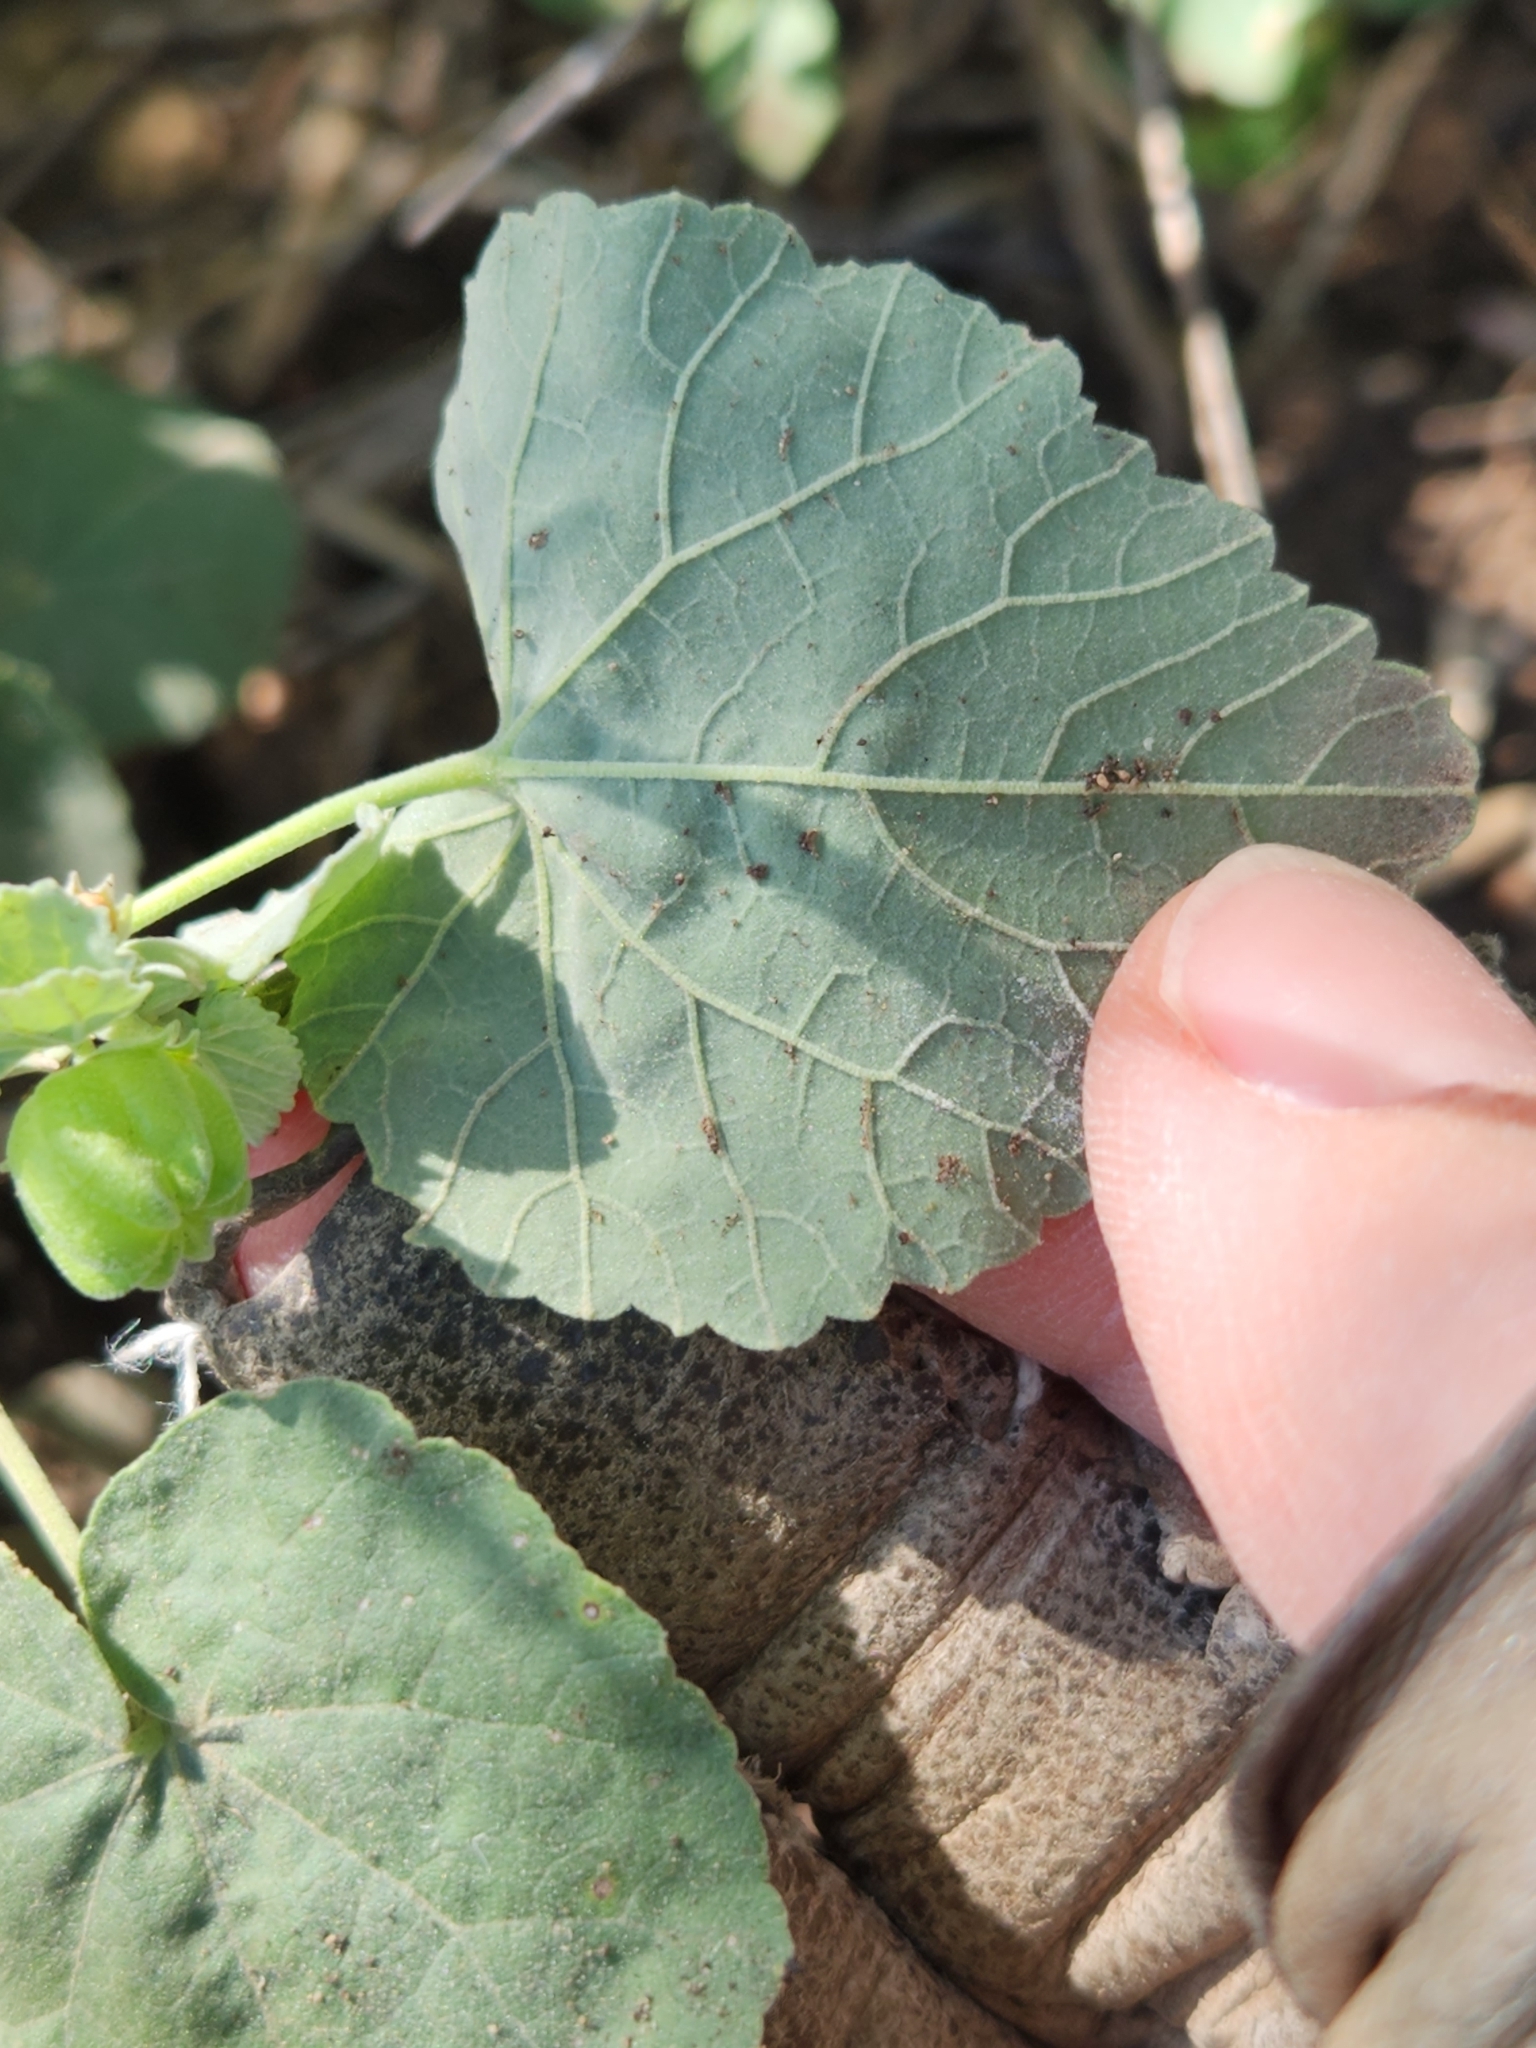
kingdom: Plantae
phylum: Tracheophyta
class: Magnoliopsida
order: Malvales
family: Malvaceae
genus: Abutilon
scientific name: Abutilon fruticosum
